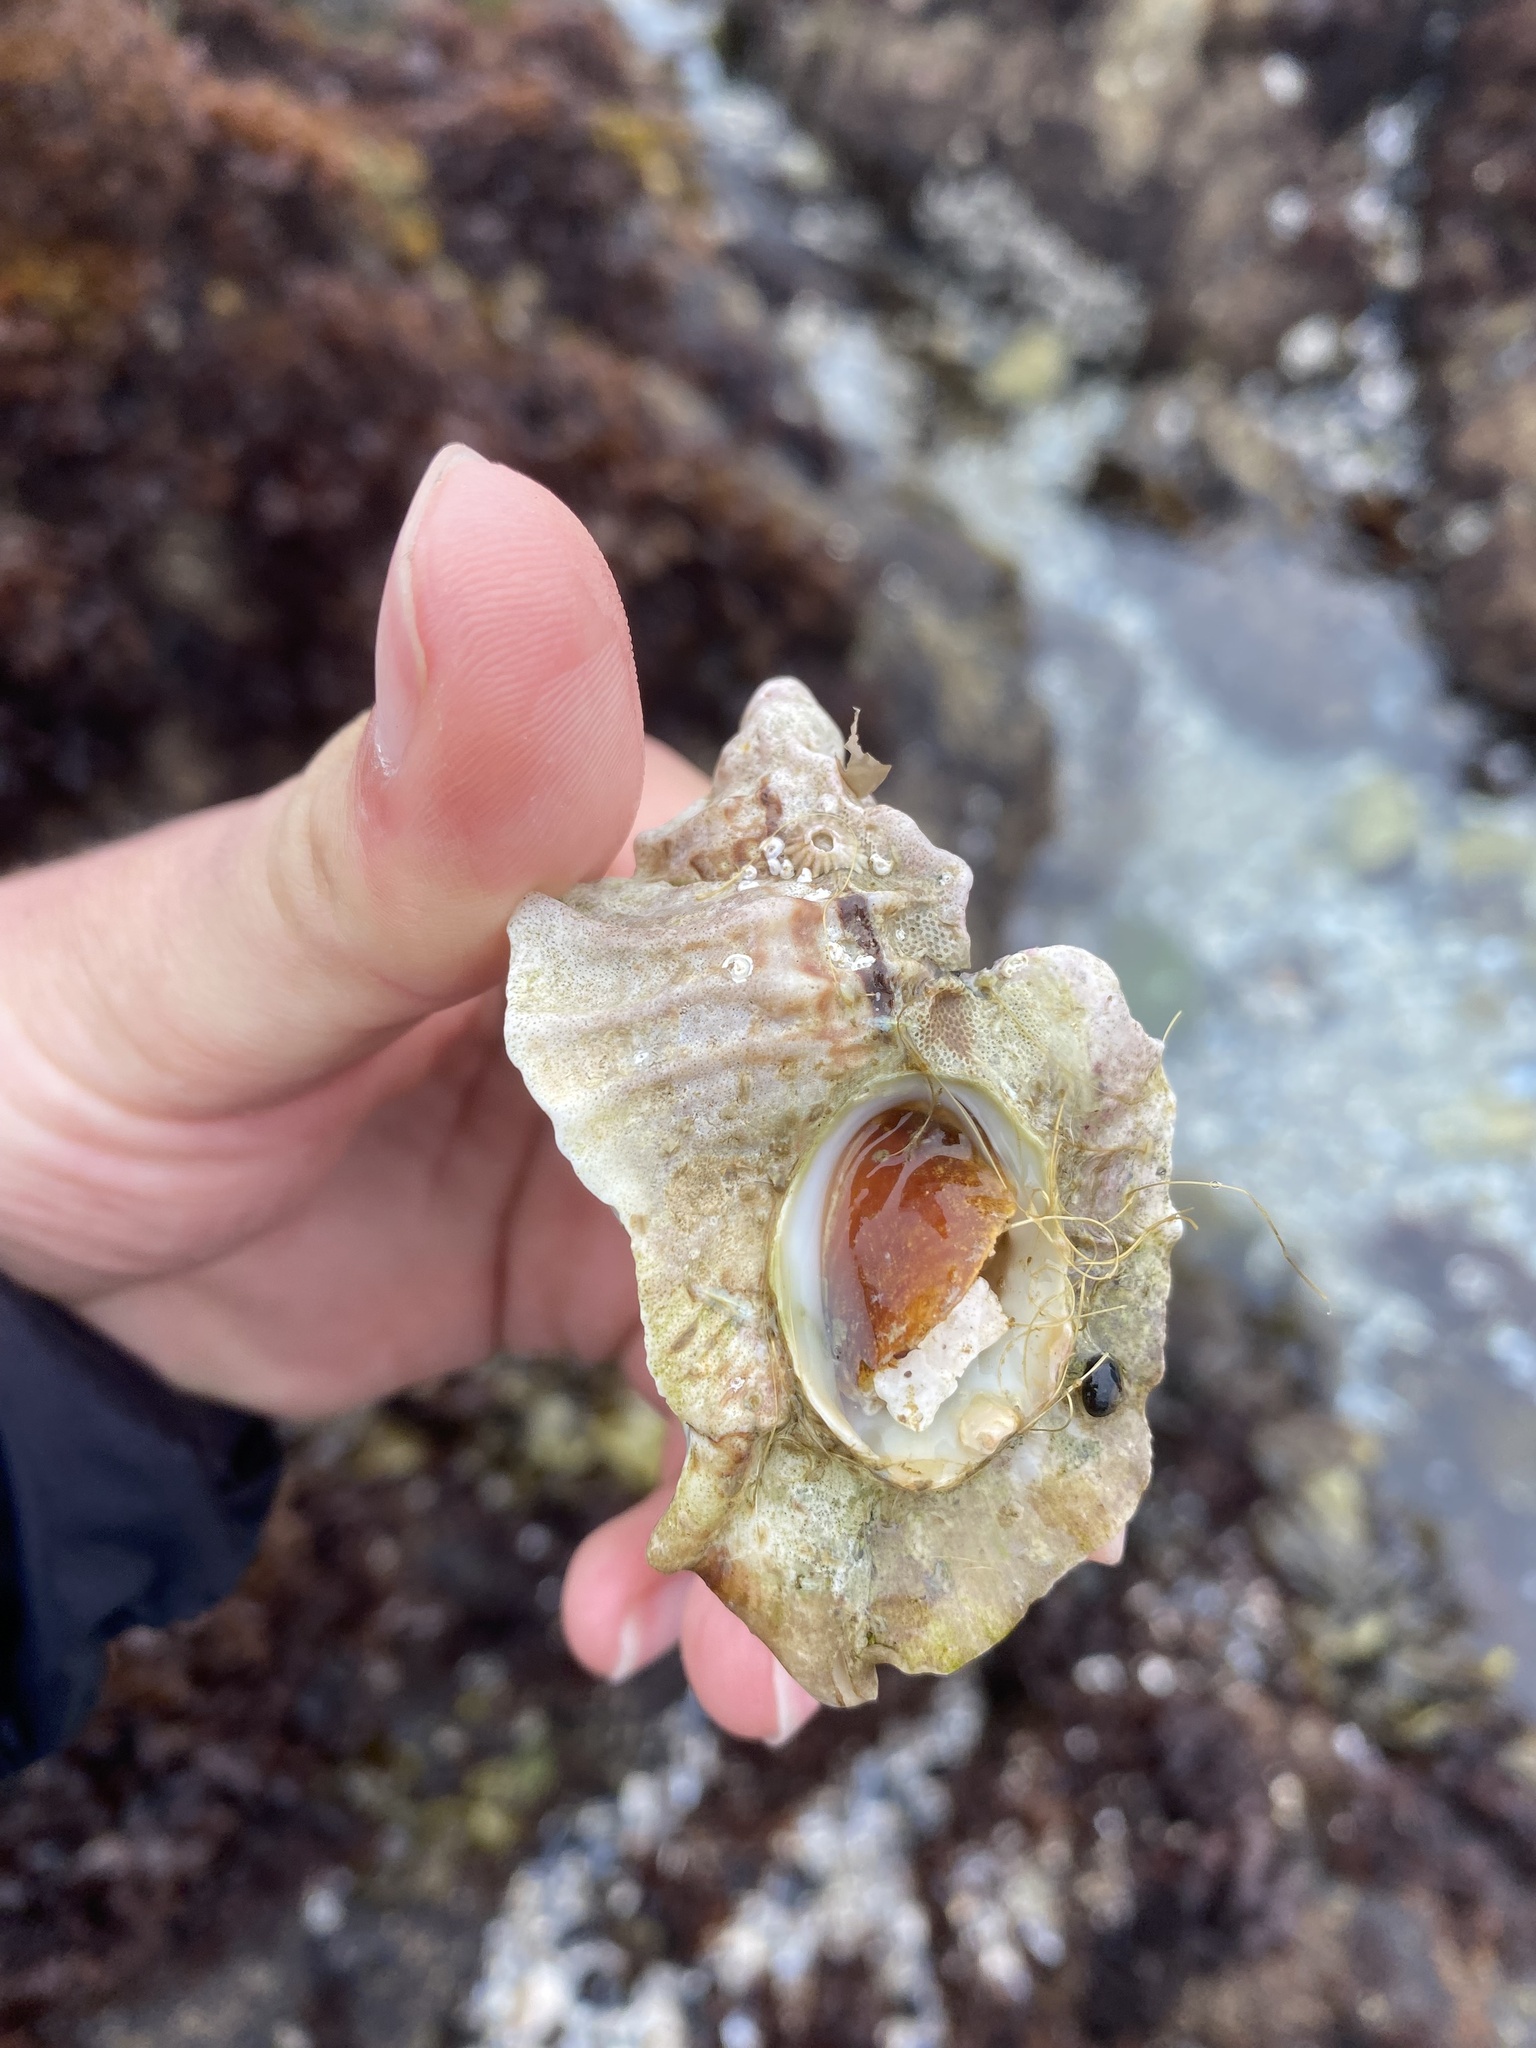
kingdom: Animalia
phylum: Mollusca
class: Gastropoda
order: Neogastropoda
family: Muricidae
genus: Ceratostoma
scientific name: Ceratostoma foliatum
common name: Foliate thorn purpura
